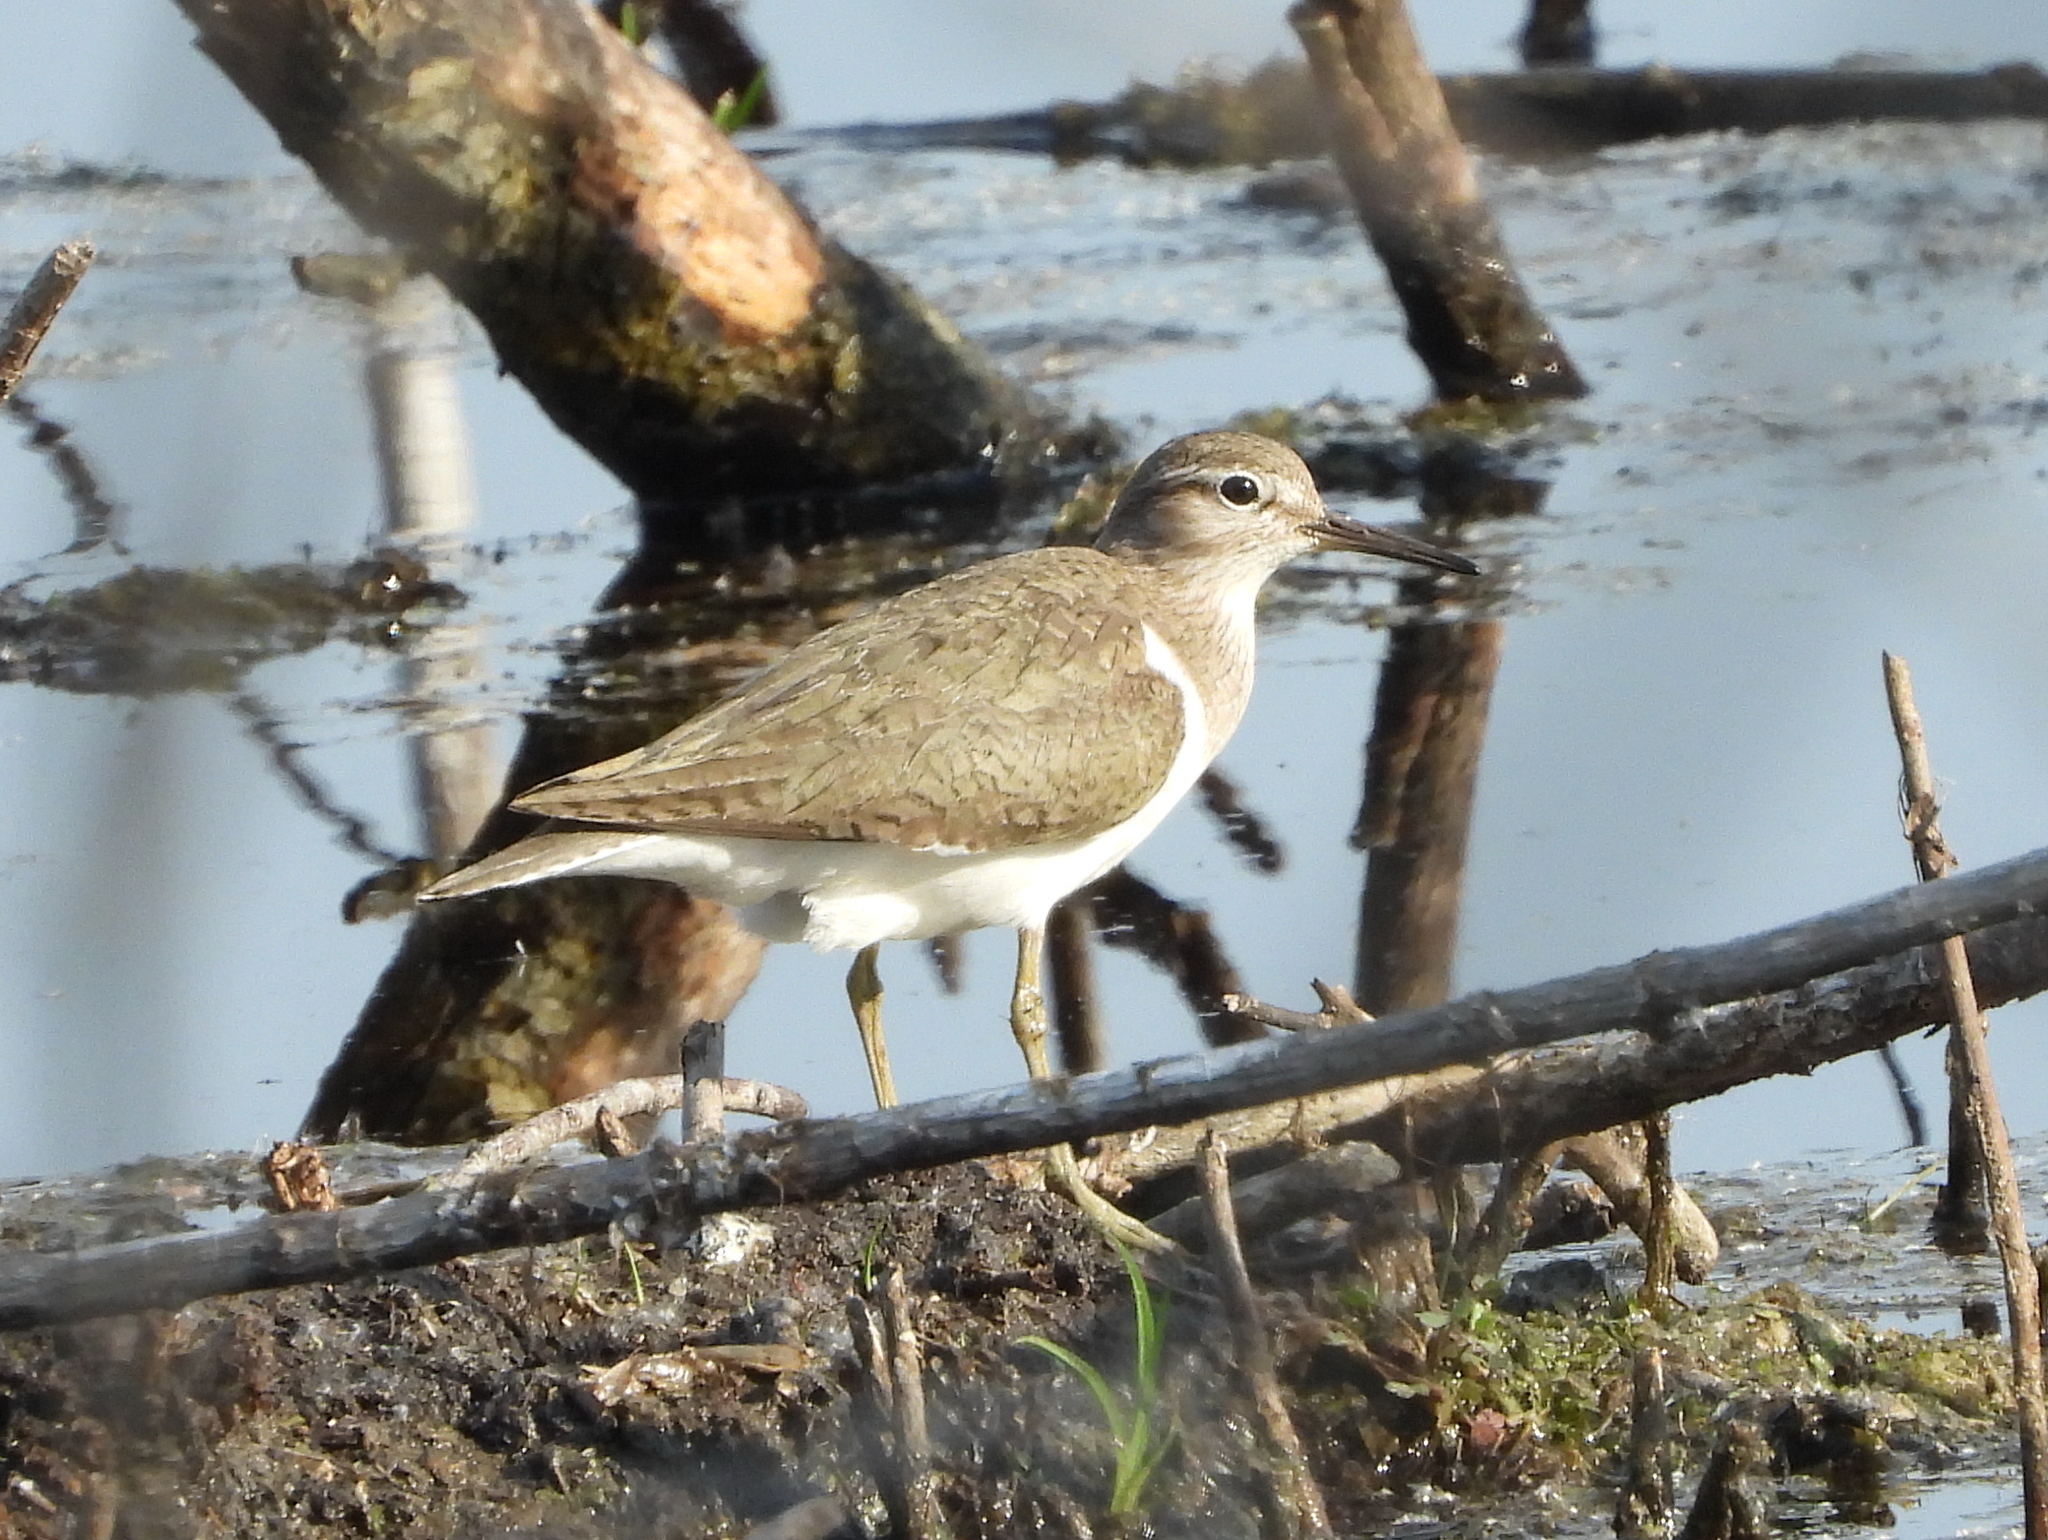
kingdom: Animalia
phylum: Chordata
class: Aves
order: Charadriiformes
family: Scolopacidae
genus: Actitis
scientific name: Actitis hypoleucos
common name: Common sandpiper
